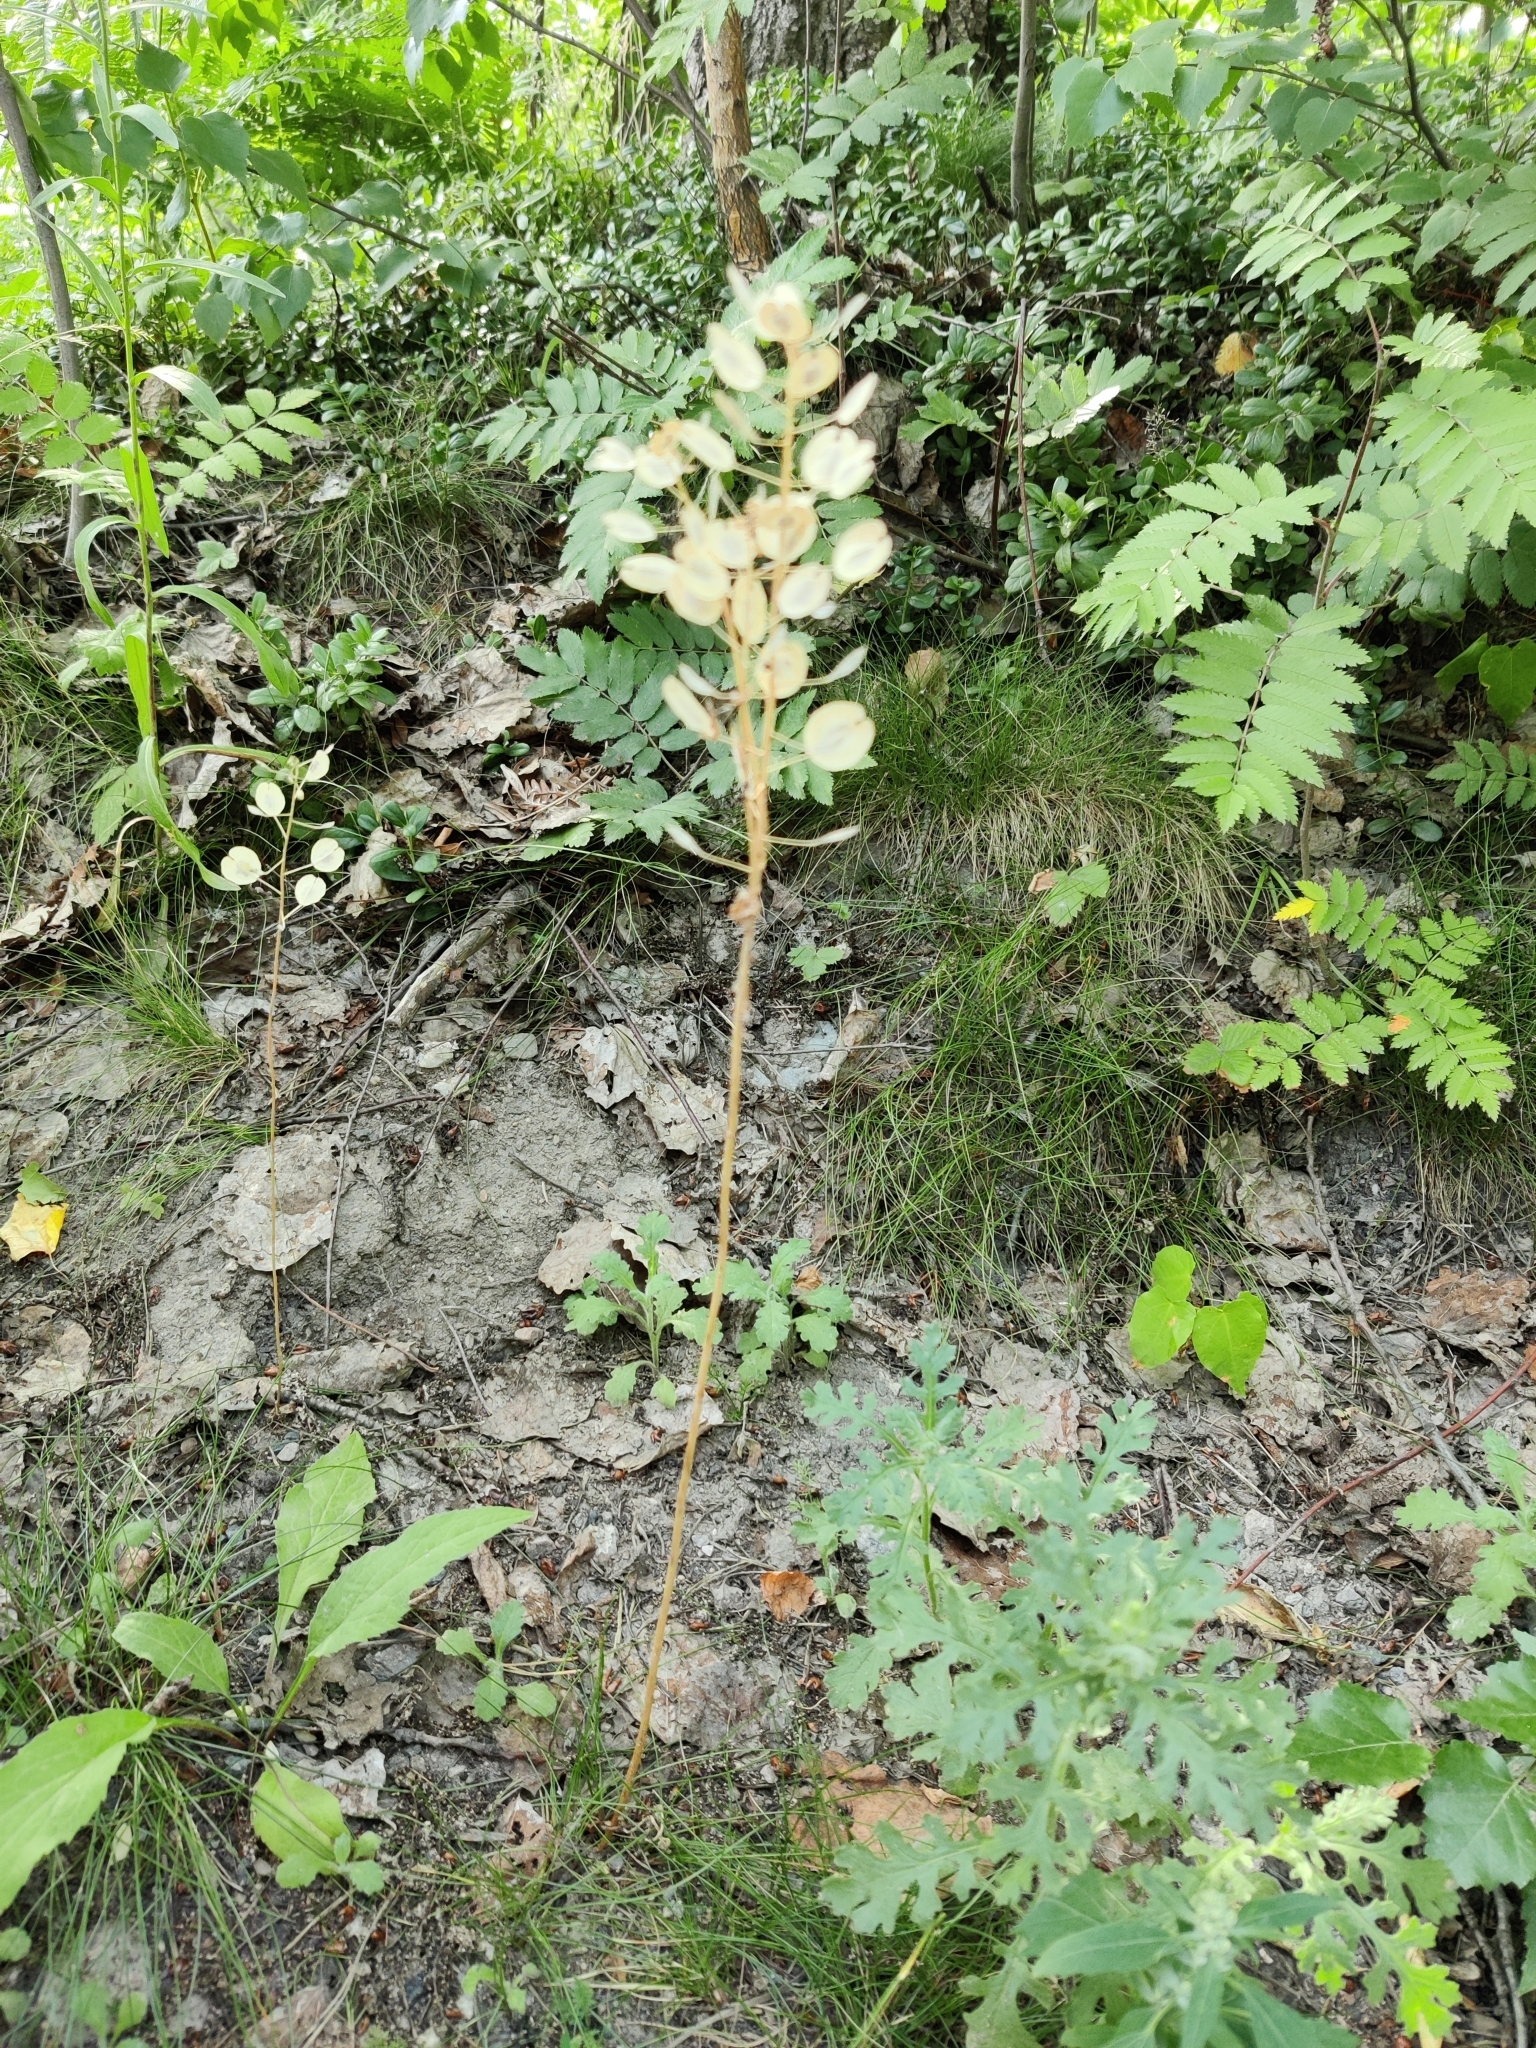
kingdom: Plantae
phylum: Tracheophyta
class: Magnoliopsida
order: Brassicales
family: Brassicaceae
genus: Thlaspi
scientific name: Thlaspi arvense
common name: Field pennycress
